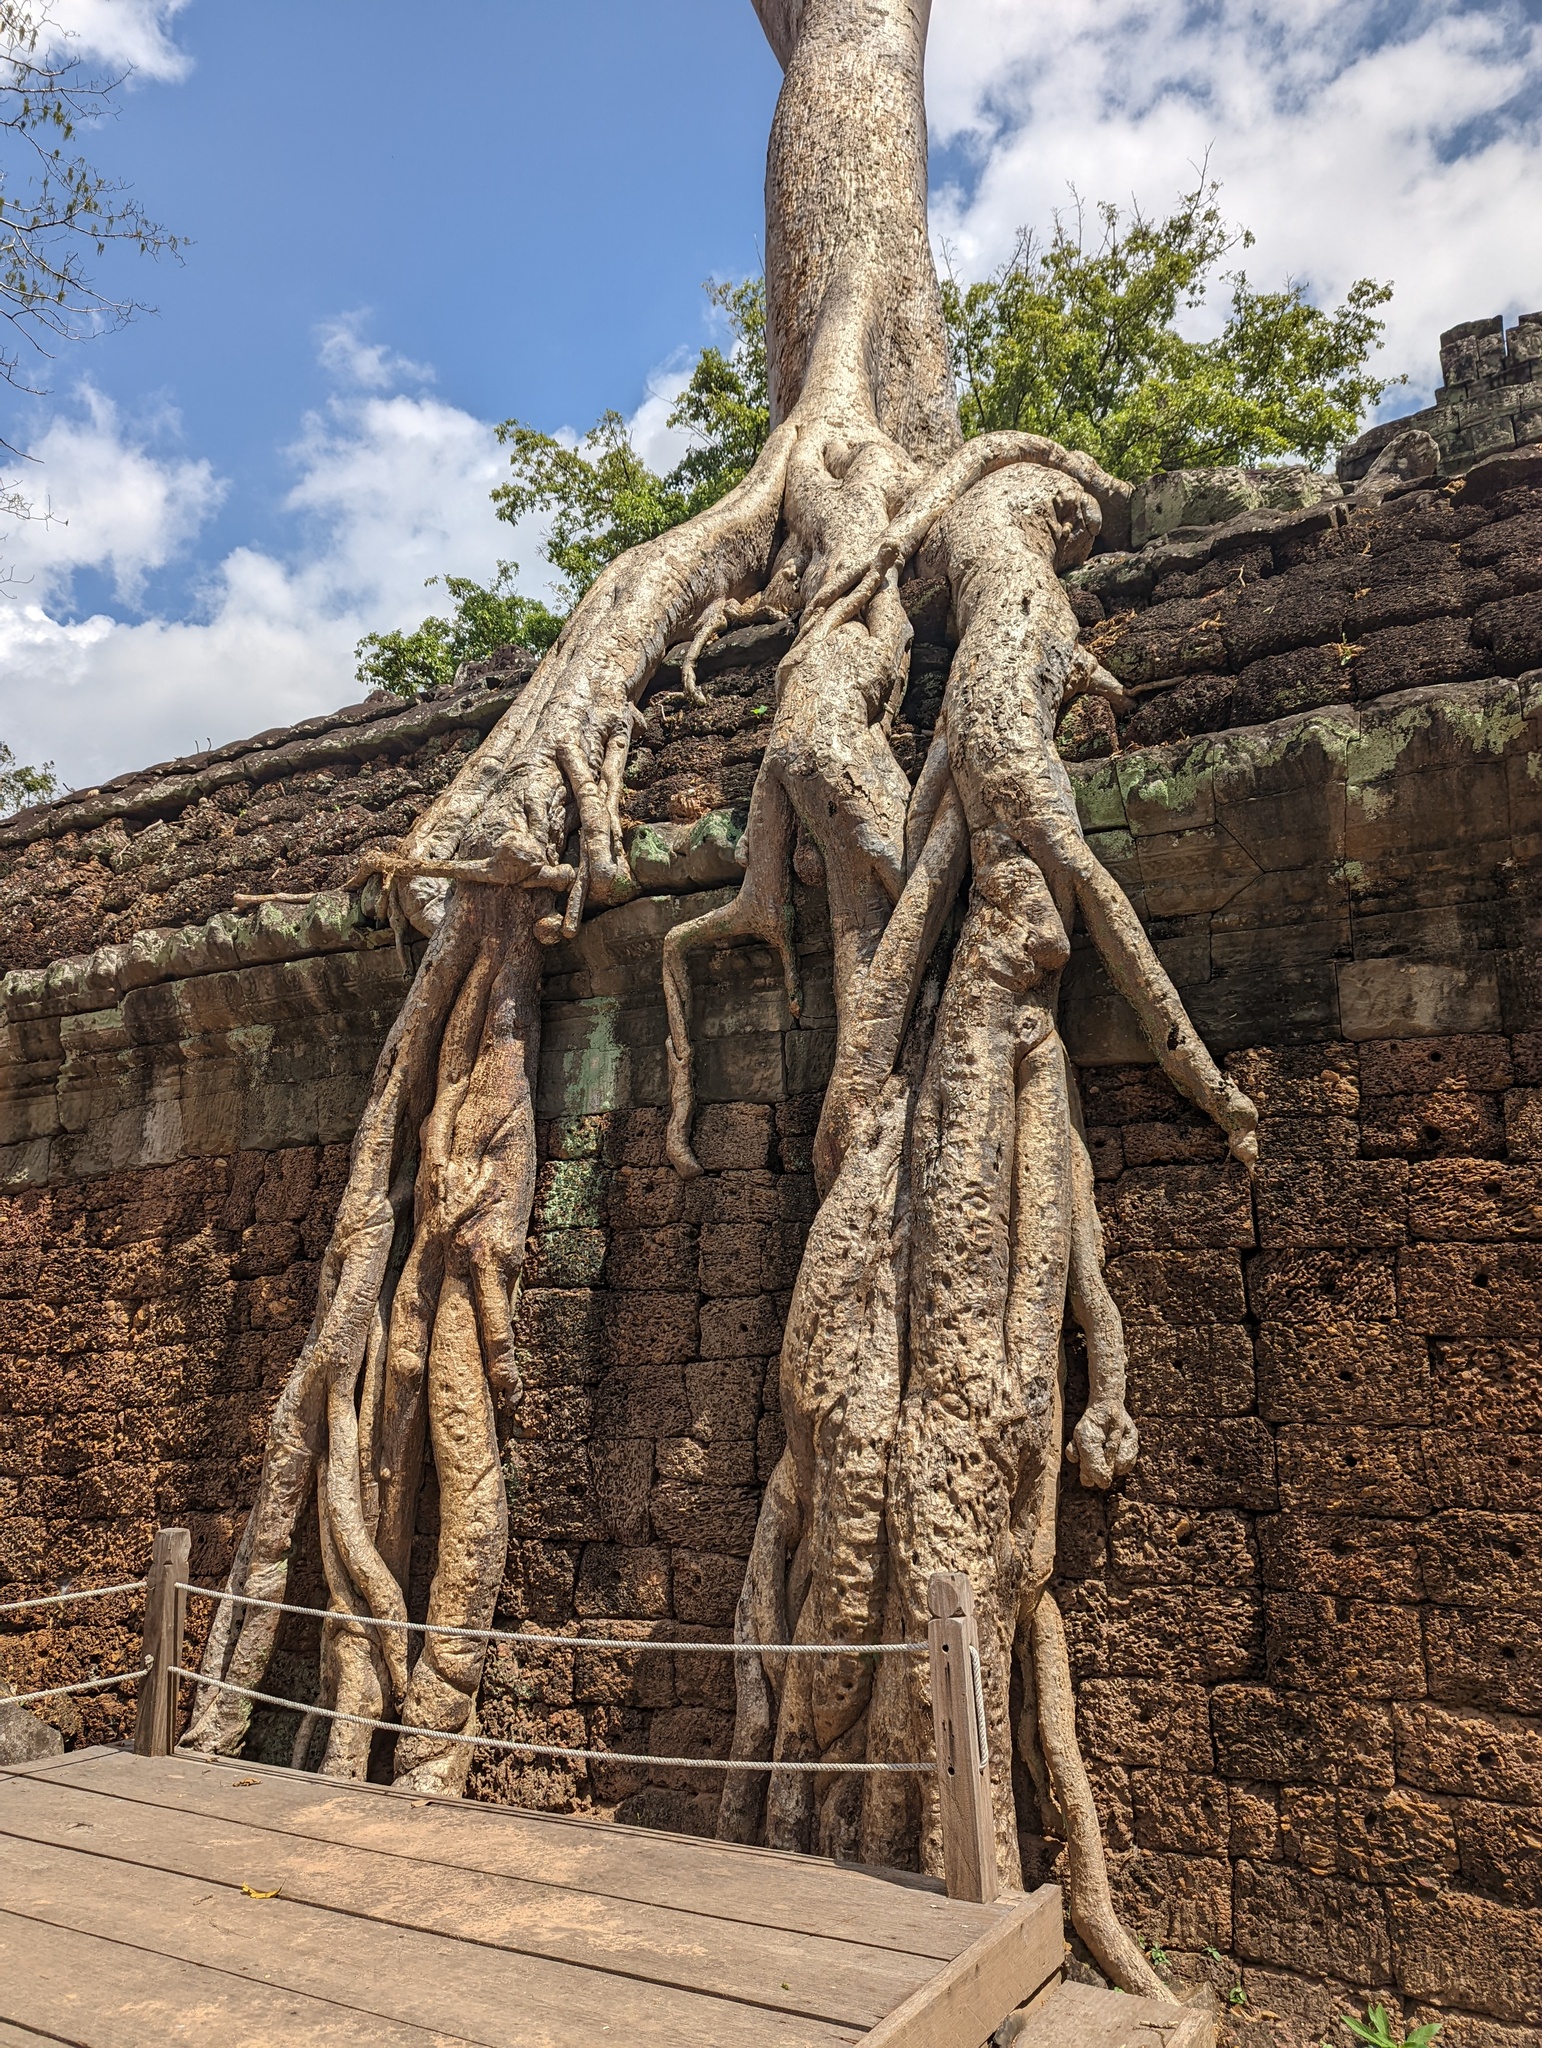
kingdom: Plantae
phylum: Tracheophyta
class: Magnoliopsida
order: Cucurbitales
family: Tetramelaceae
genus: Tetrameles
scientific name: Tetrameles nudiflora
